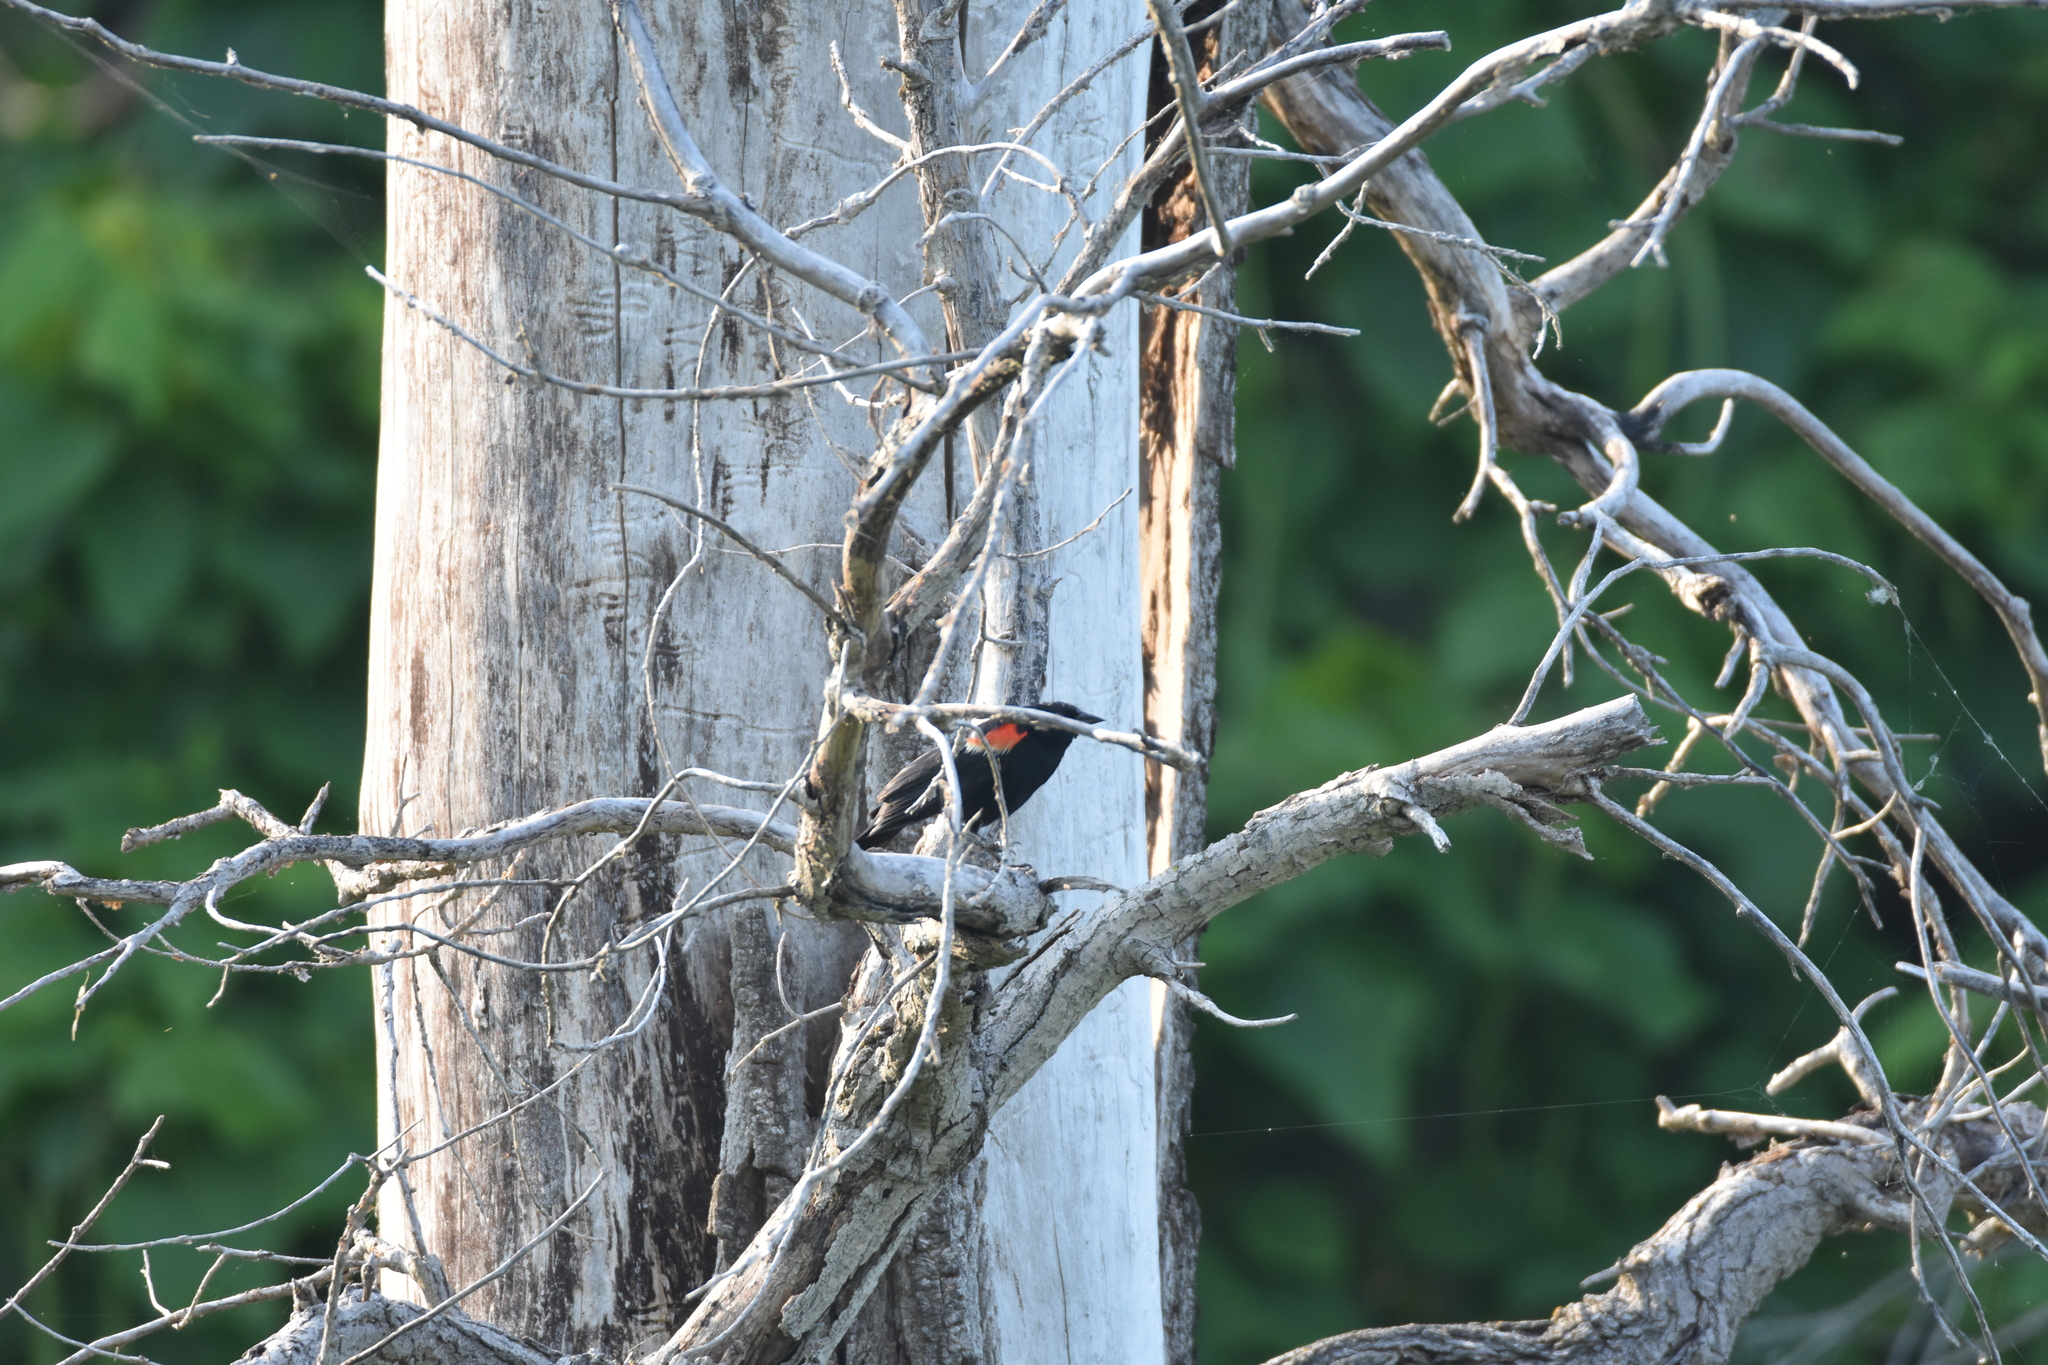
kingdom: Animalia
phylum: Chordata
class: Aves
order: Passeriformes
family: Icteridae
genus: Agelaius
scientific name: Agelaius phoeniceus
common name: Red-winged blackbird
